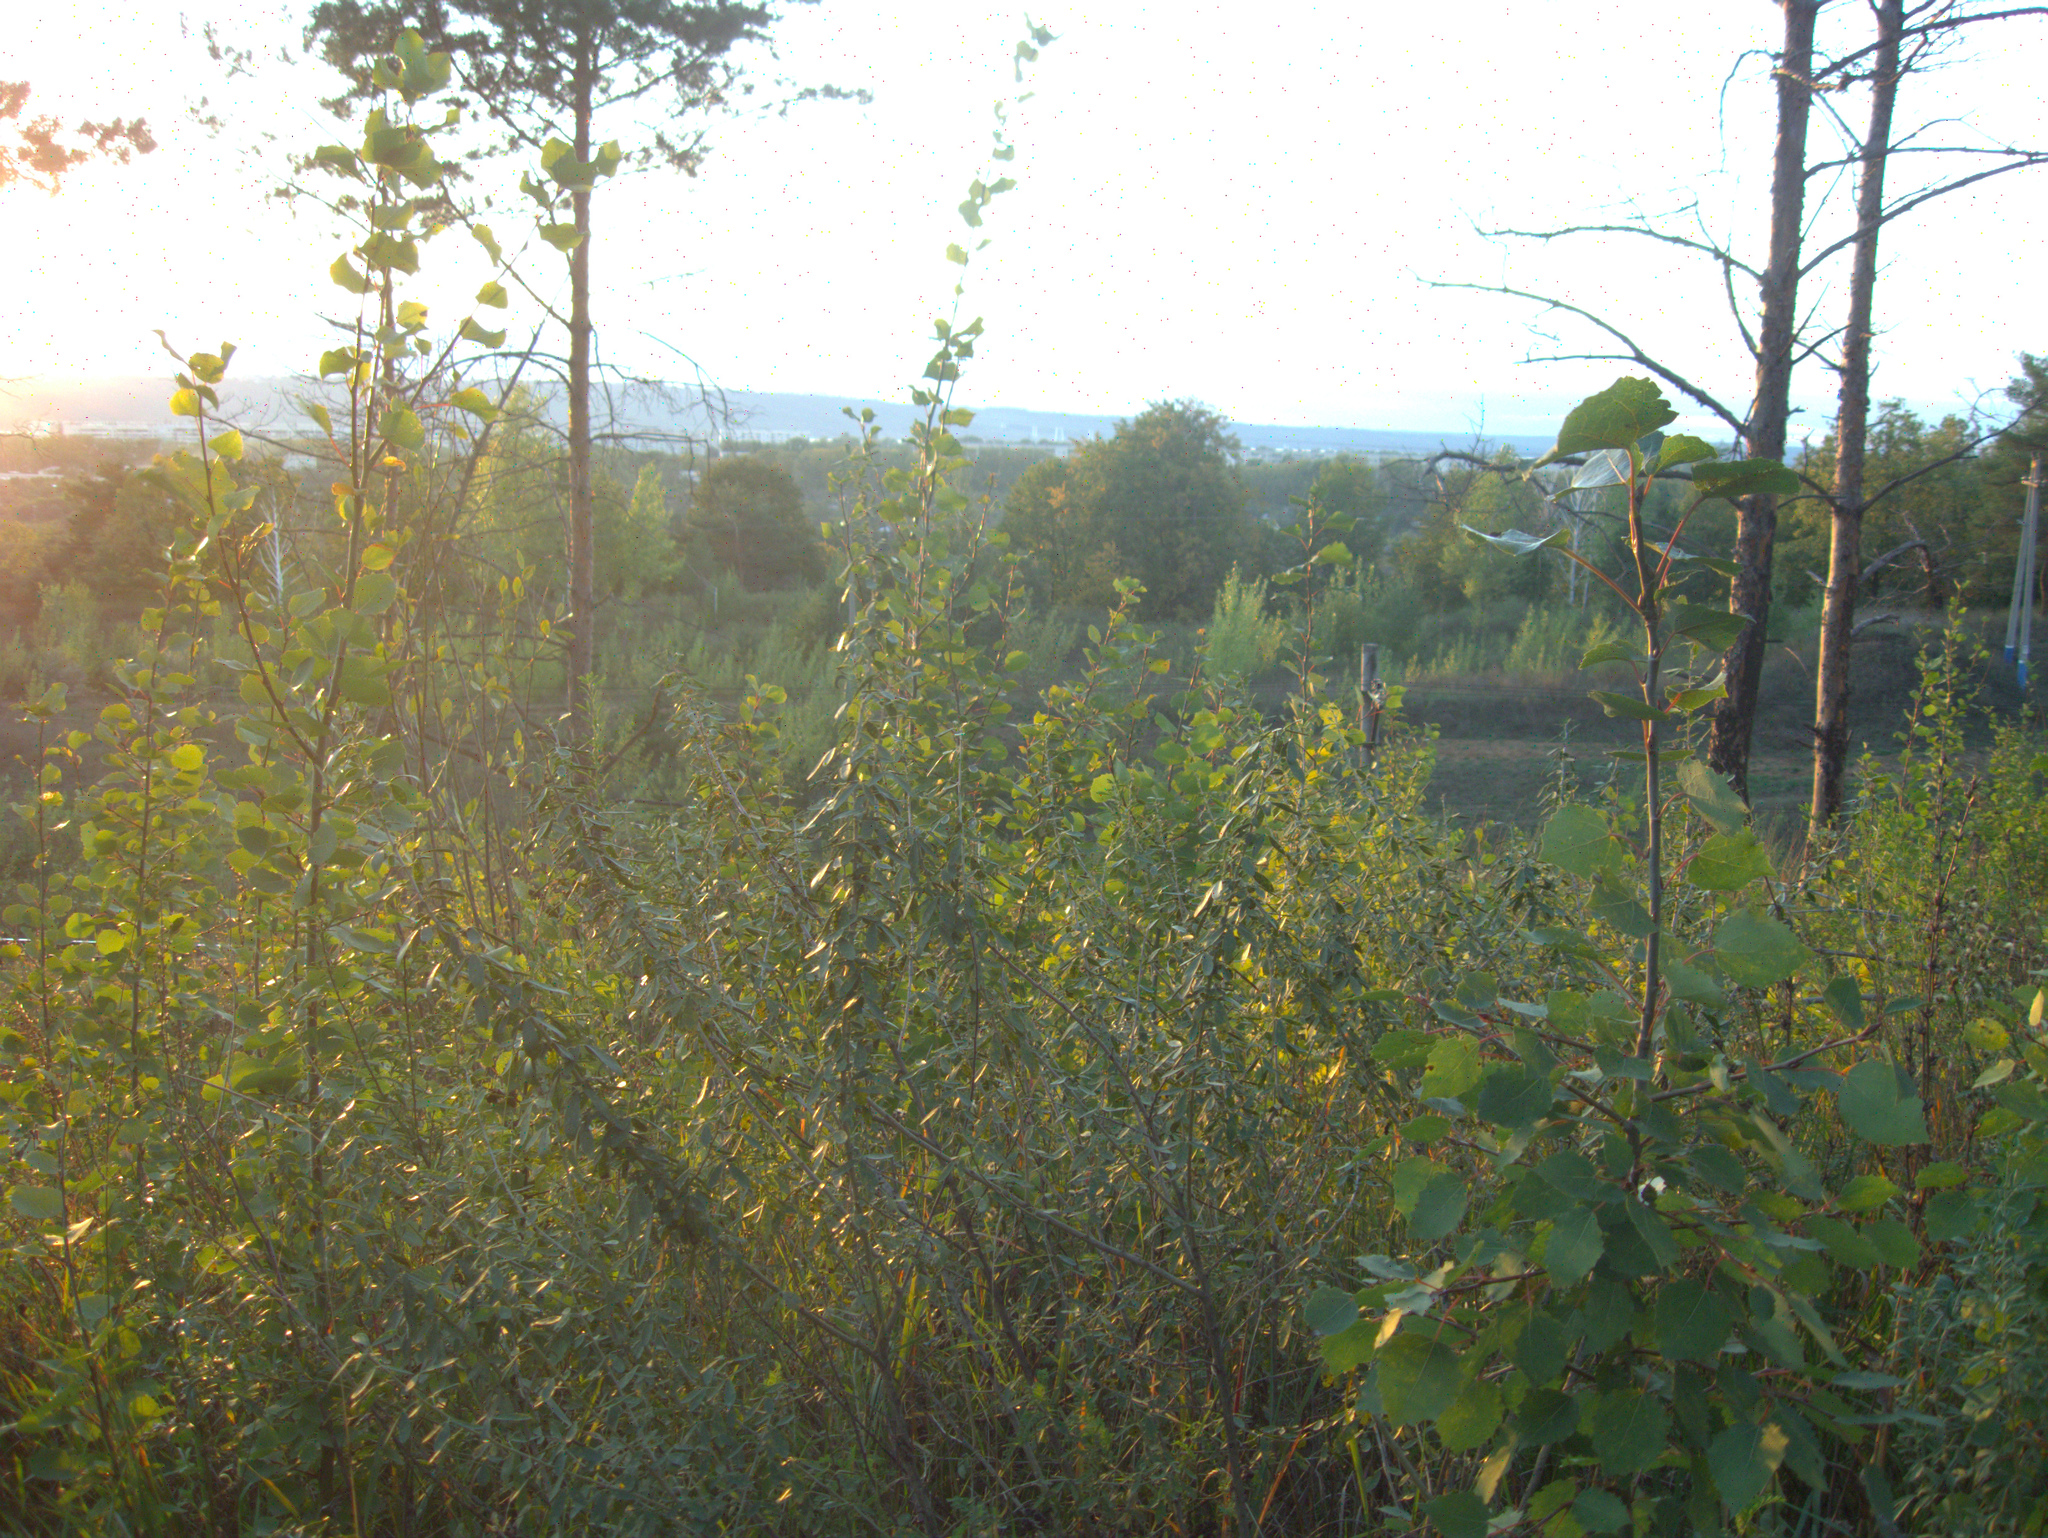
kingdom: Plantae
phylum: Tracheophyta
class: Magnoliopsida
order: Malpighiales
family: Salicaceae
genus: Populus
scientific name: Populus tremula
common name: European aspen
